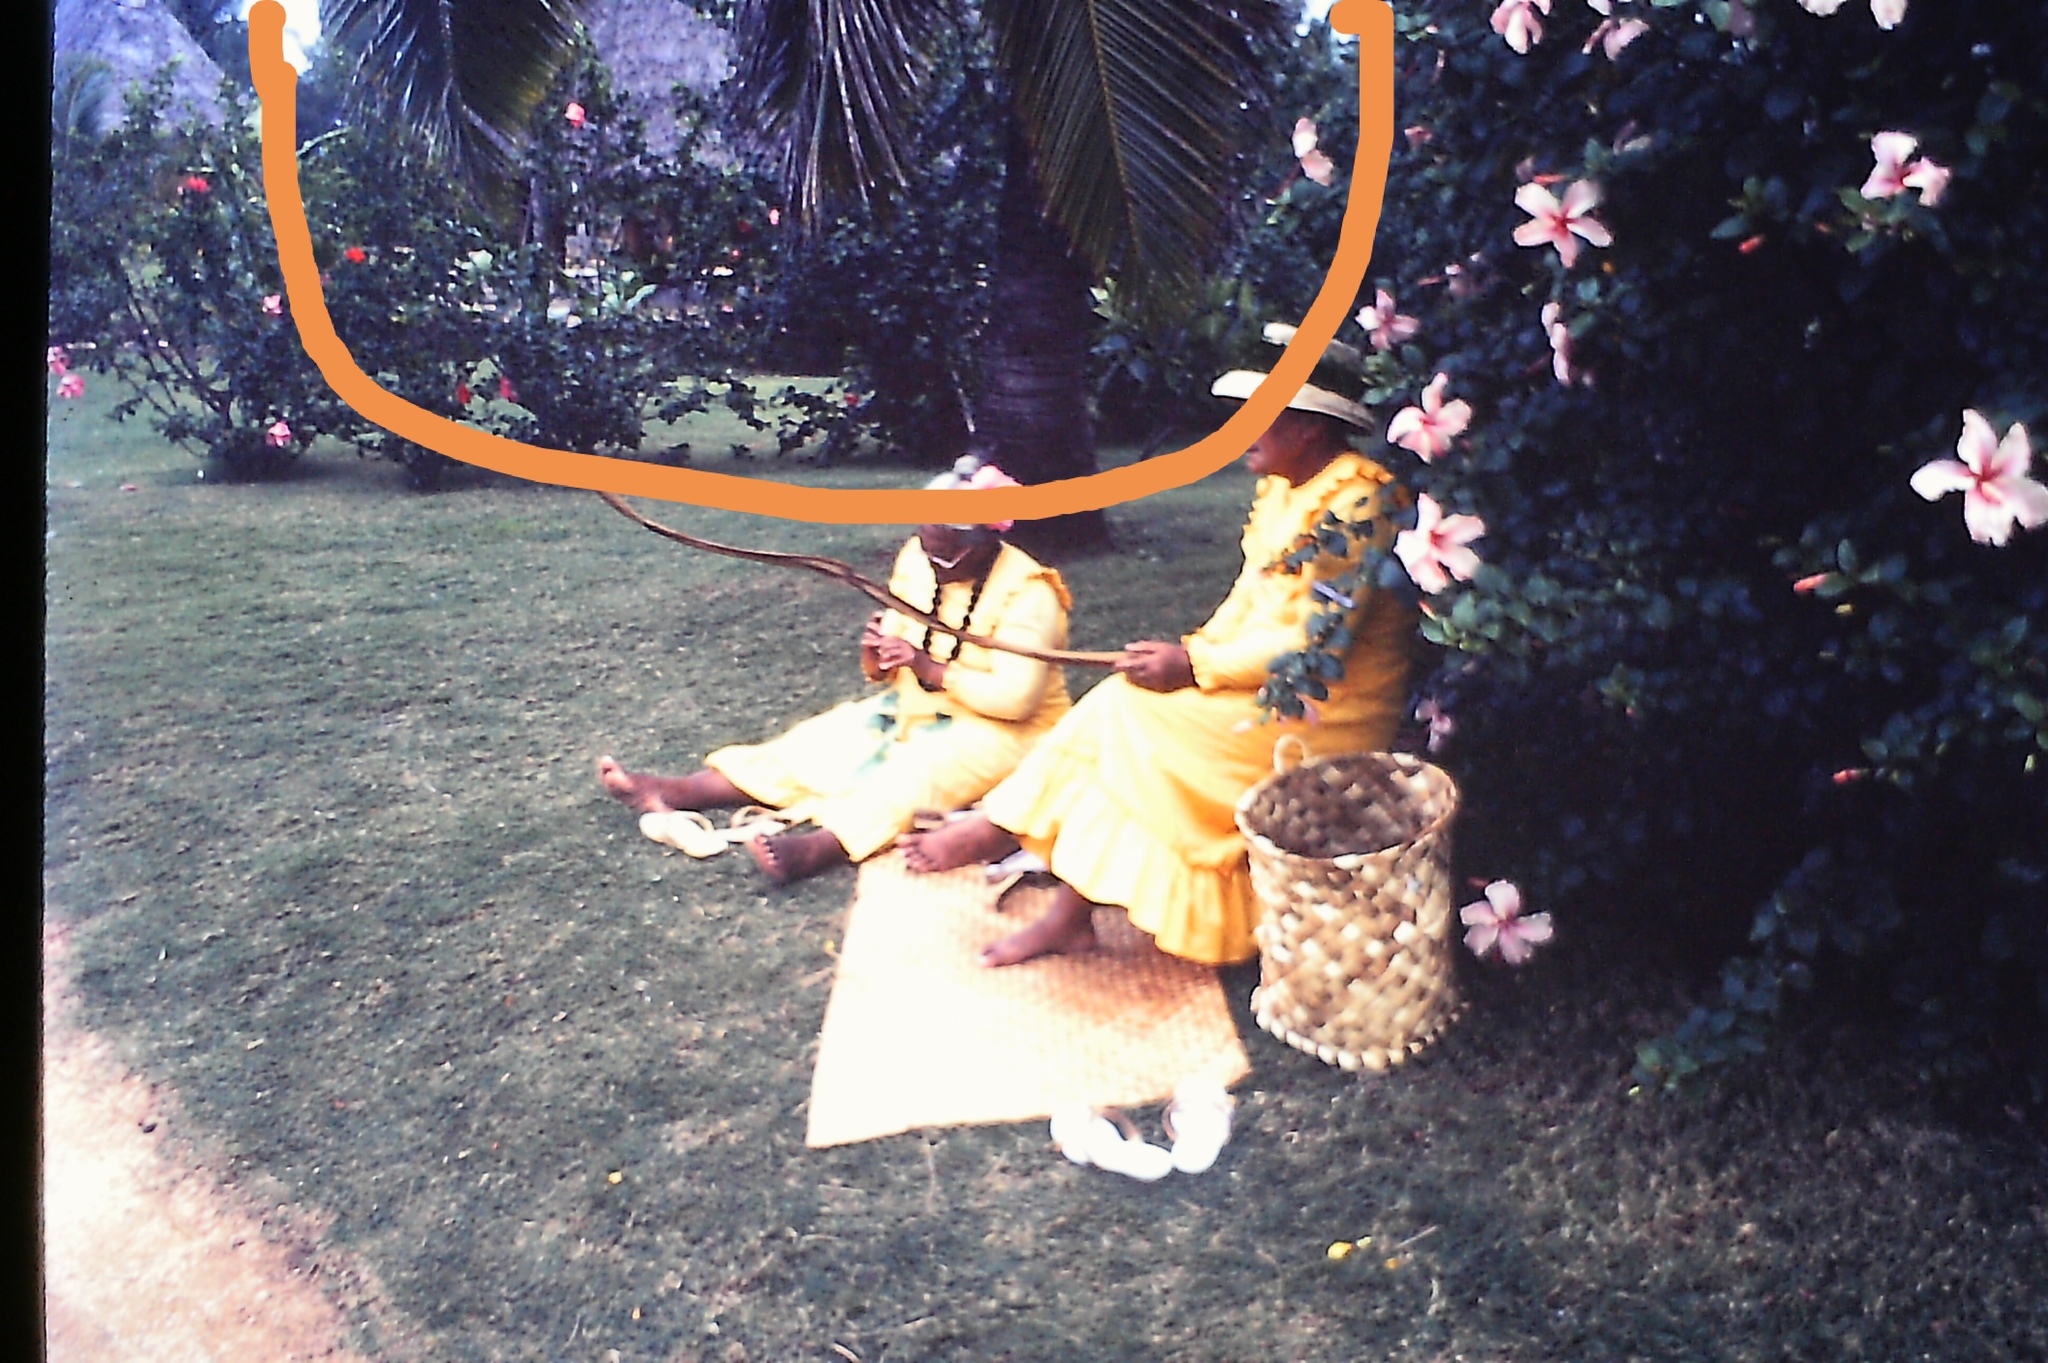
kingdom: Plantae
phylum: Tracheophyta
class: Liliopsida
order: Arecales
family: Arecaceae
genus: Cocos
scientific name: Cocos nucifera
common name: Coconut palm
